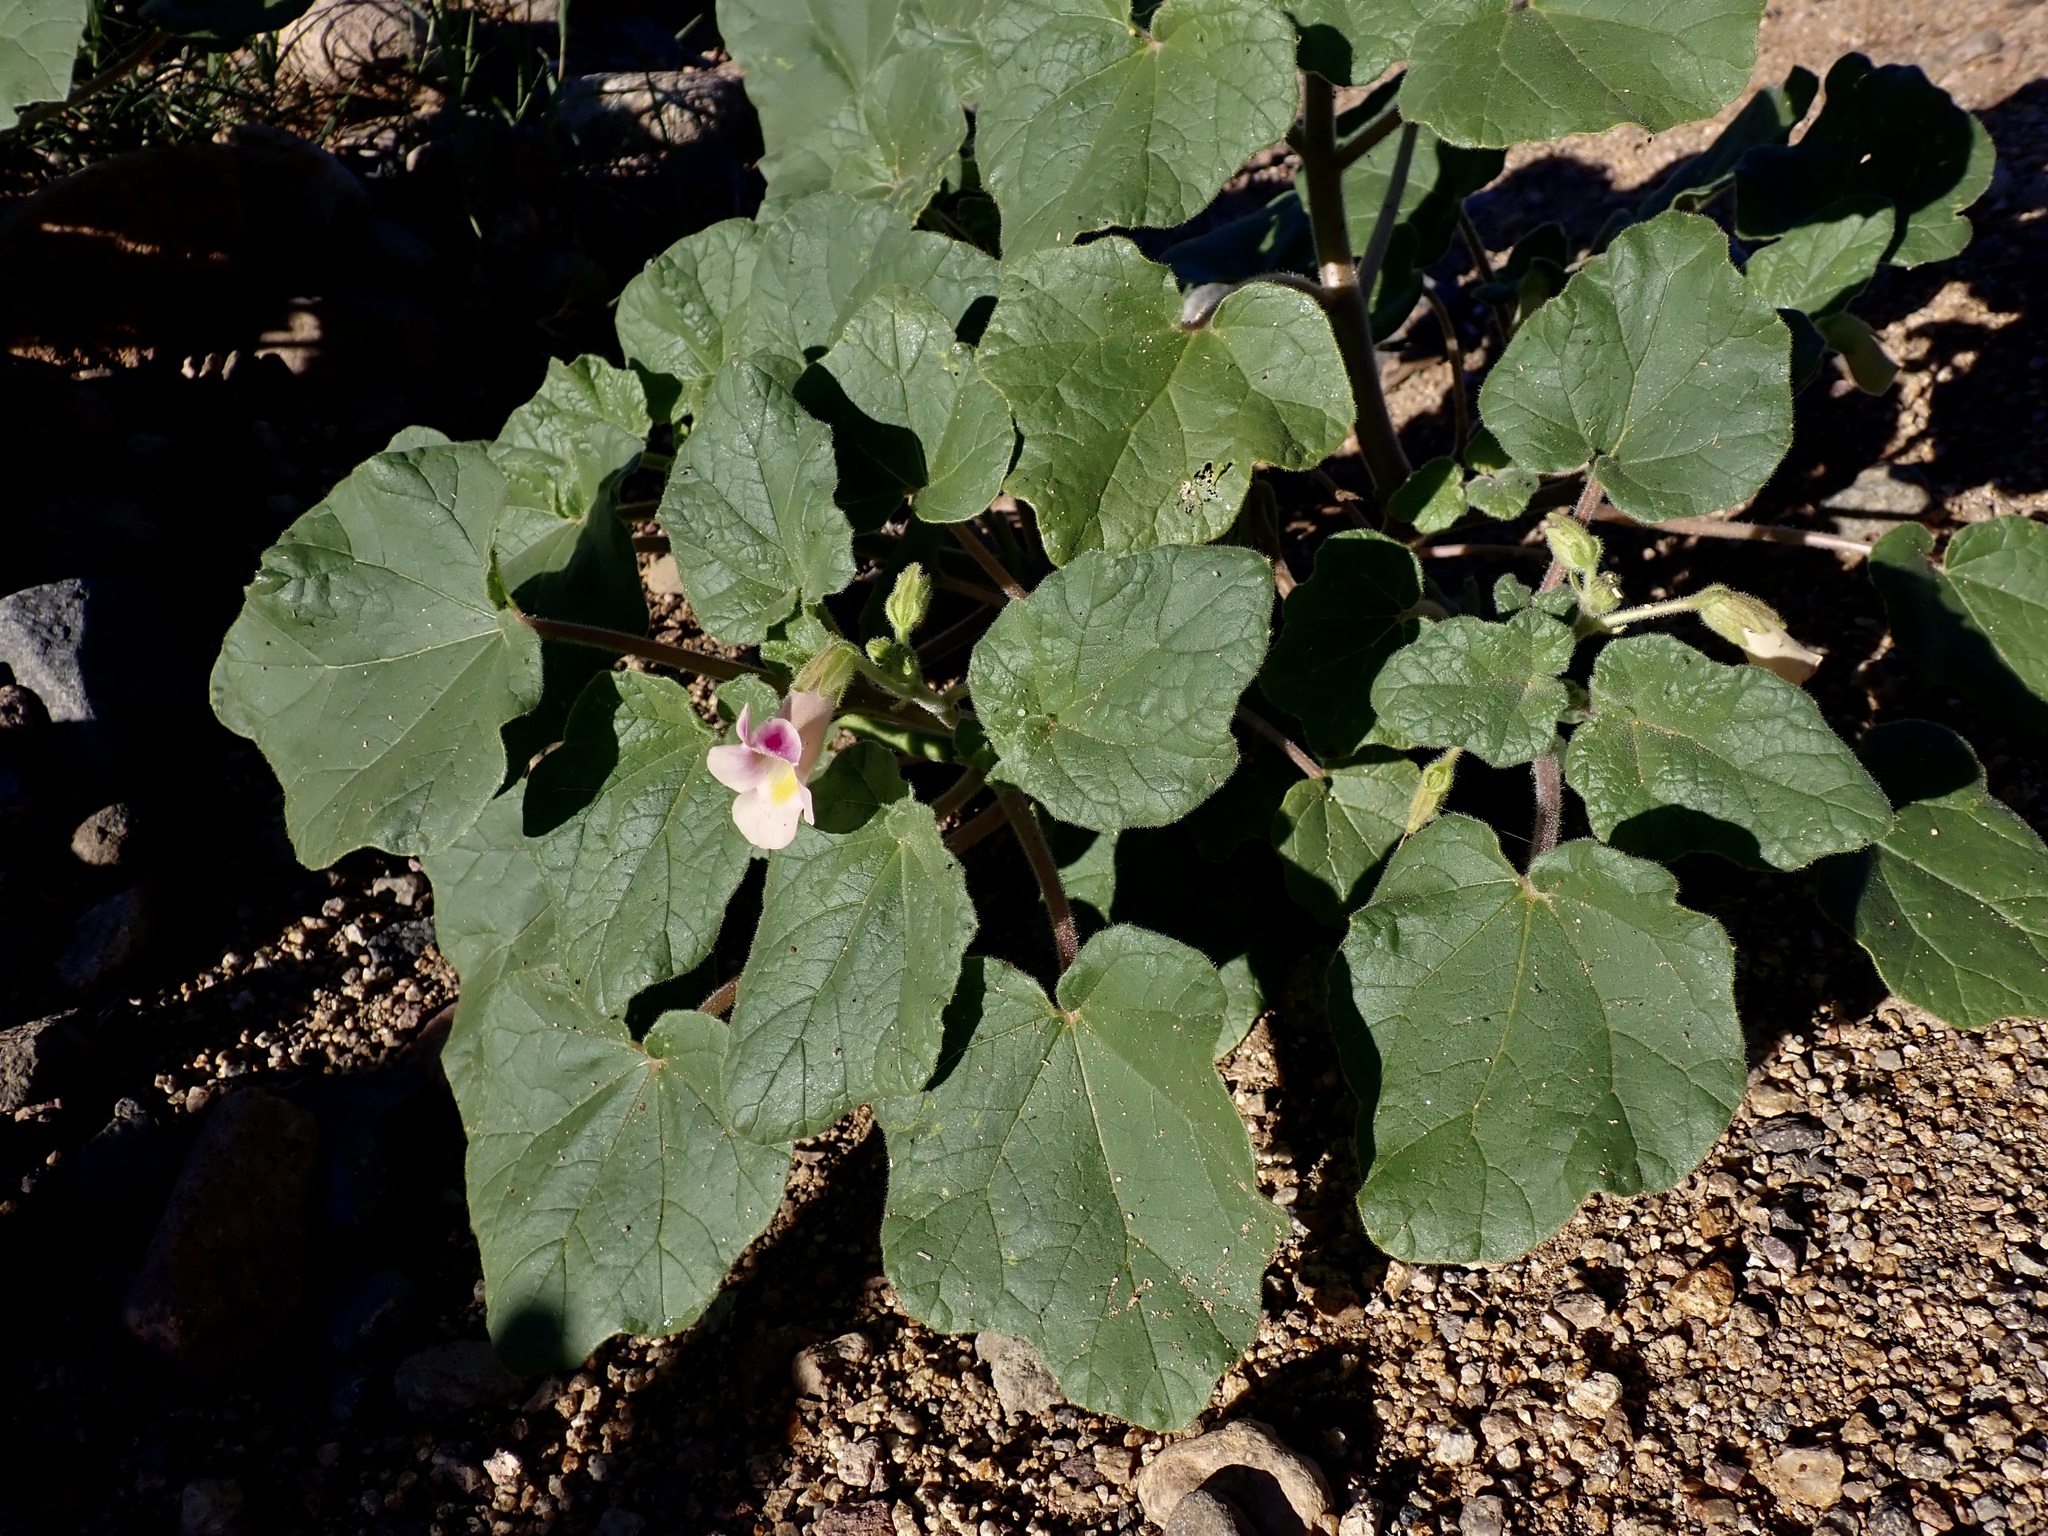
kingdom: Plantae
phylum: Tracheophyta
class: Magnoliopsida
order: Lamiales
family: Martyniaceae
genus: Proboscidea
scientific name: Proboscidea parviflora
